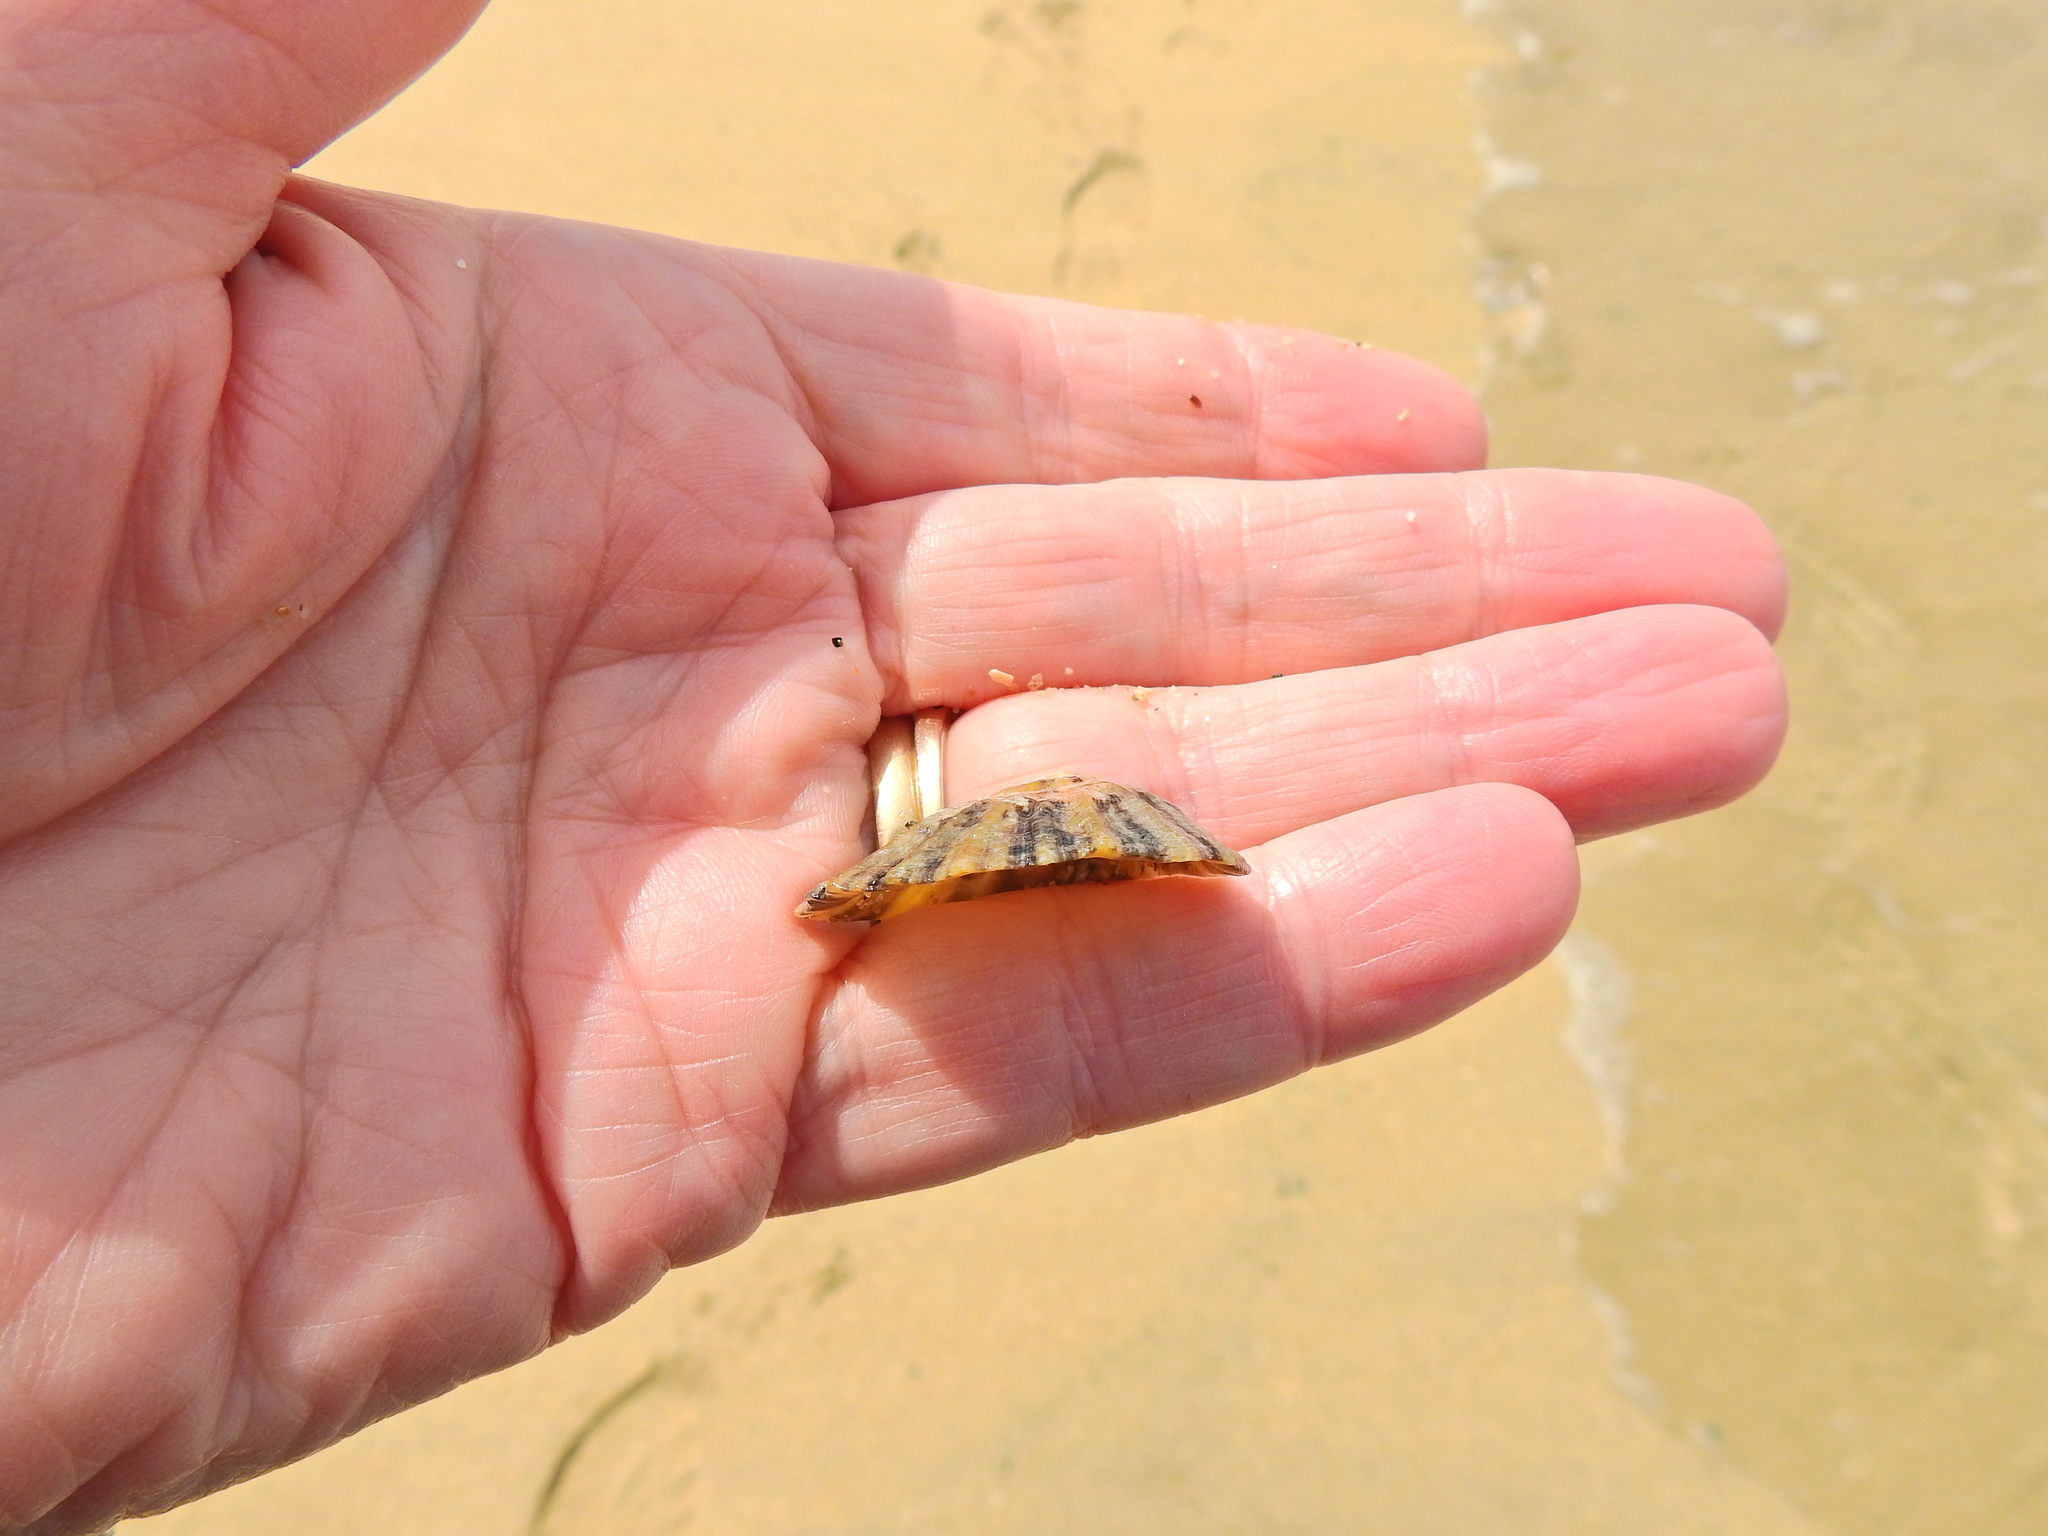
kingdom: Animalia
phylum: Mollusca
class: Gastropoda
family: Patellidae
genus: Patella
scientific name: Patella vulgata
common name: Common limpet
